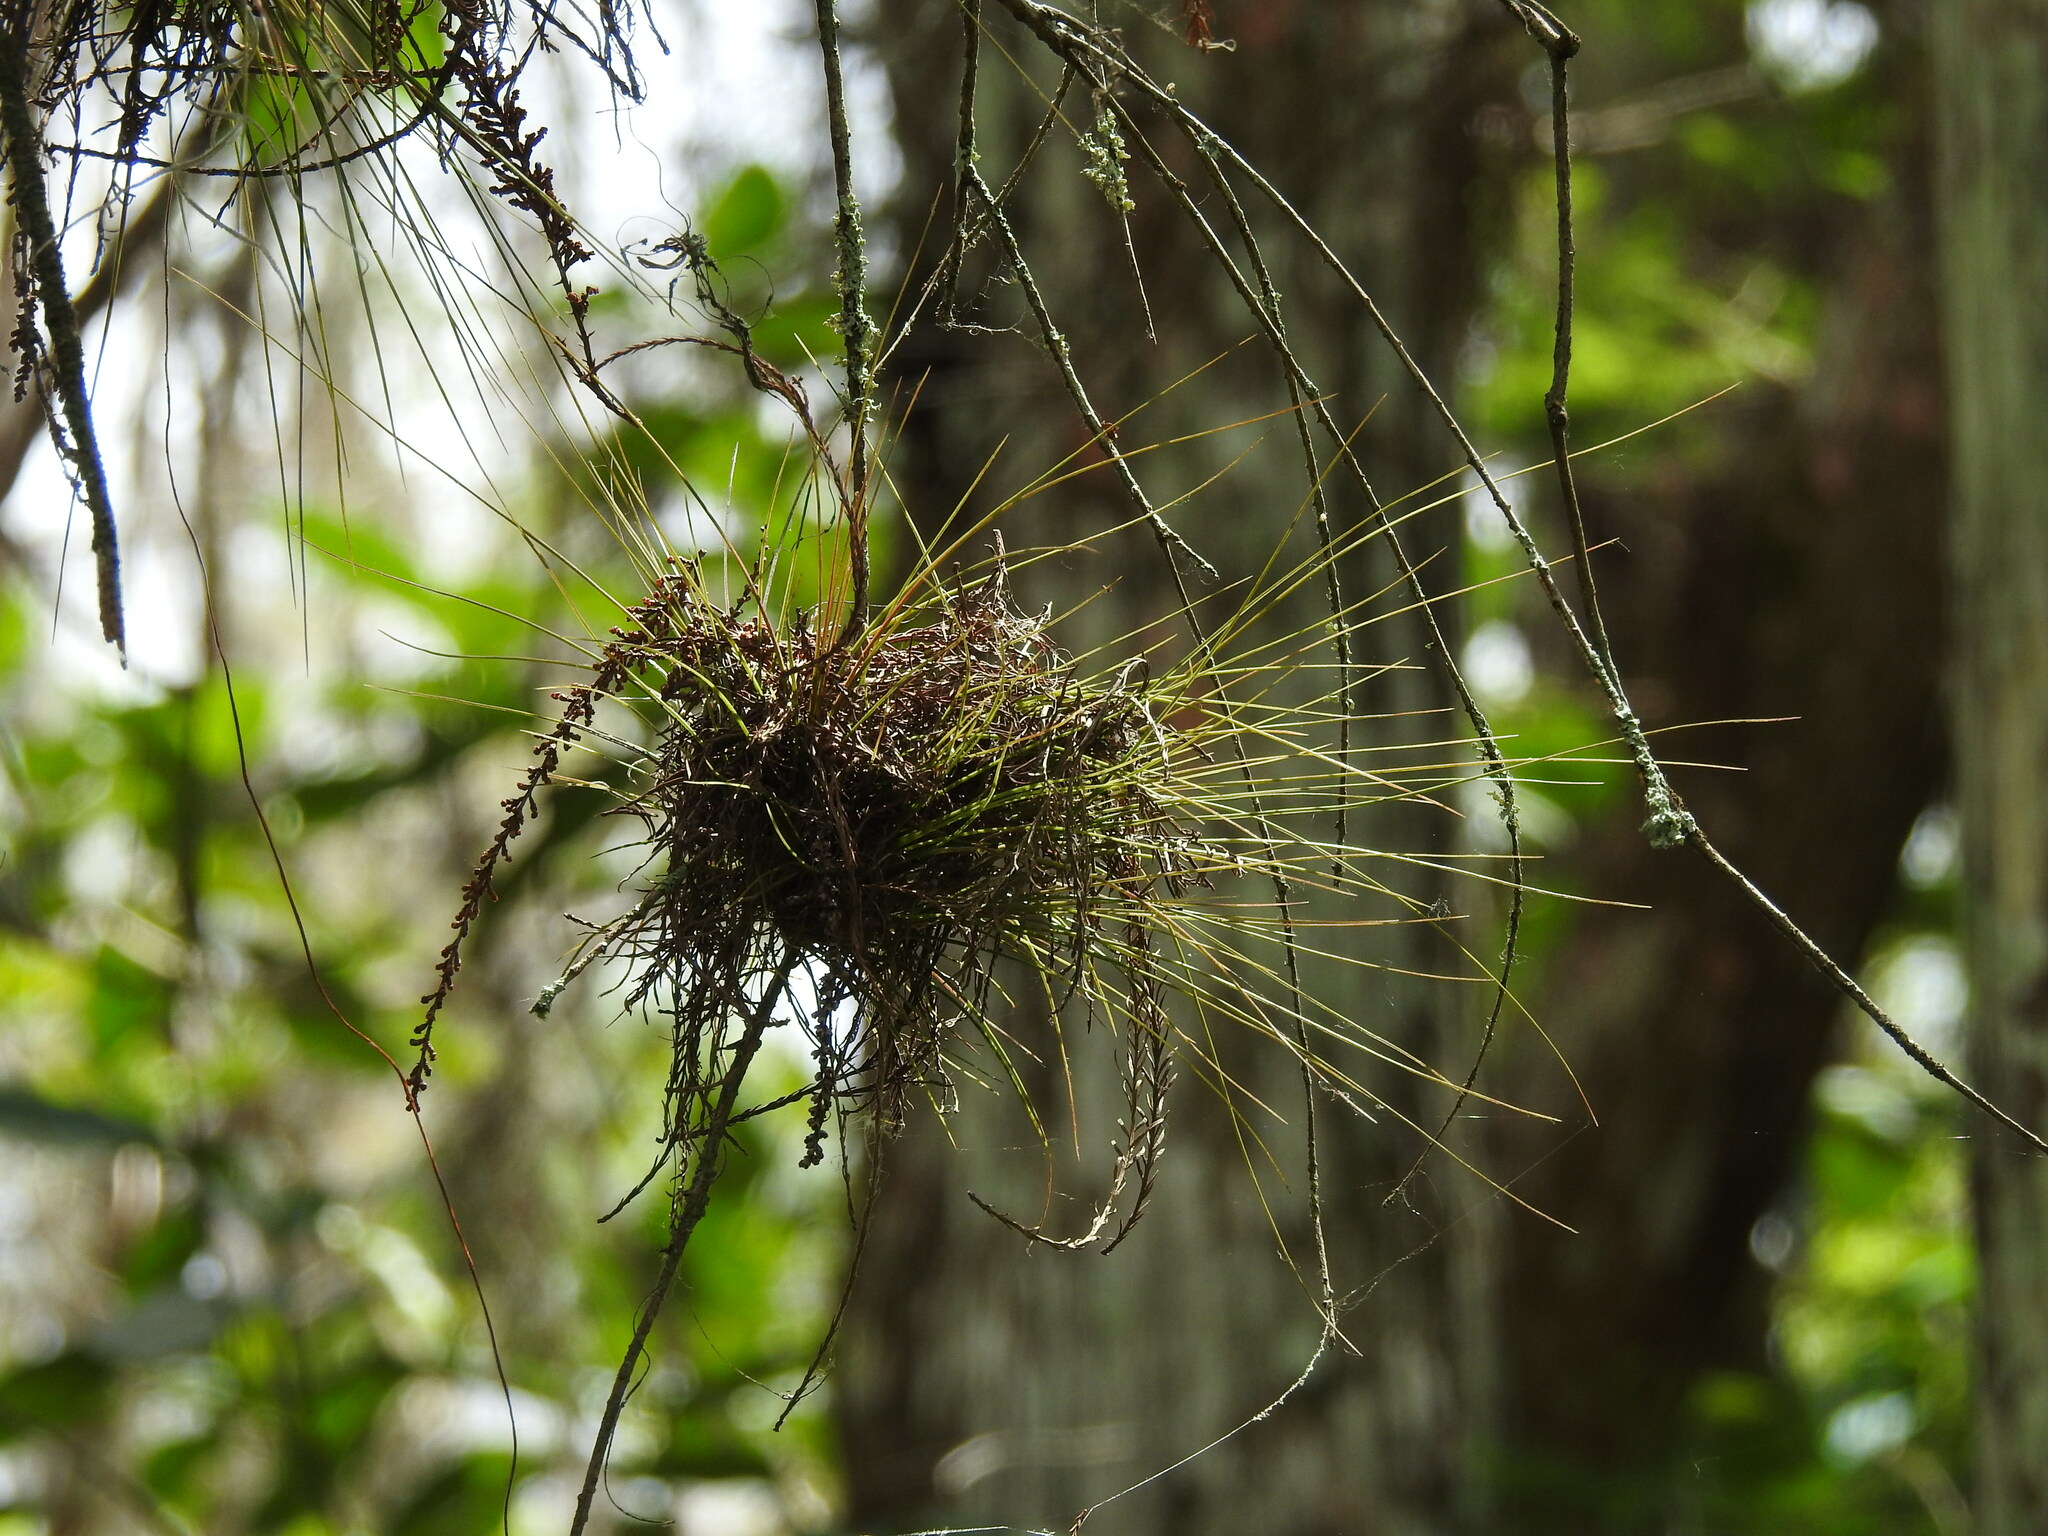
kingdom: Plantae
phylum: Tracheophyta
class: Liliopsida
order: Poales
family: Bromeliaceae
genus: Tillandsia
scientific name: Tillandsia setacea
